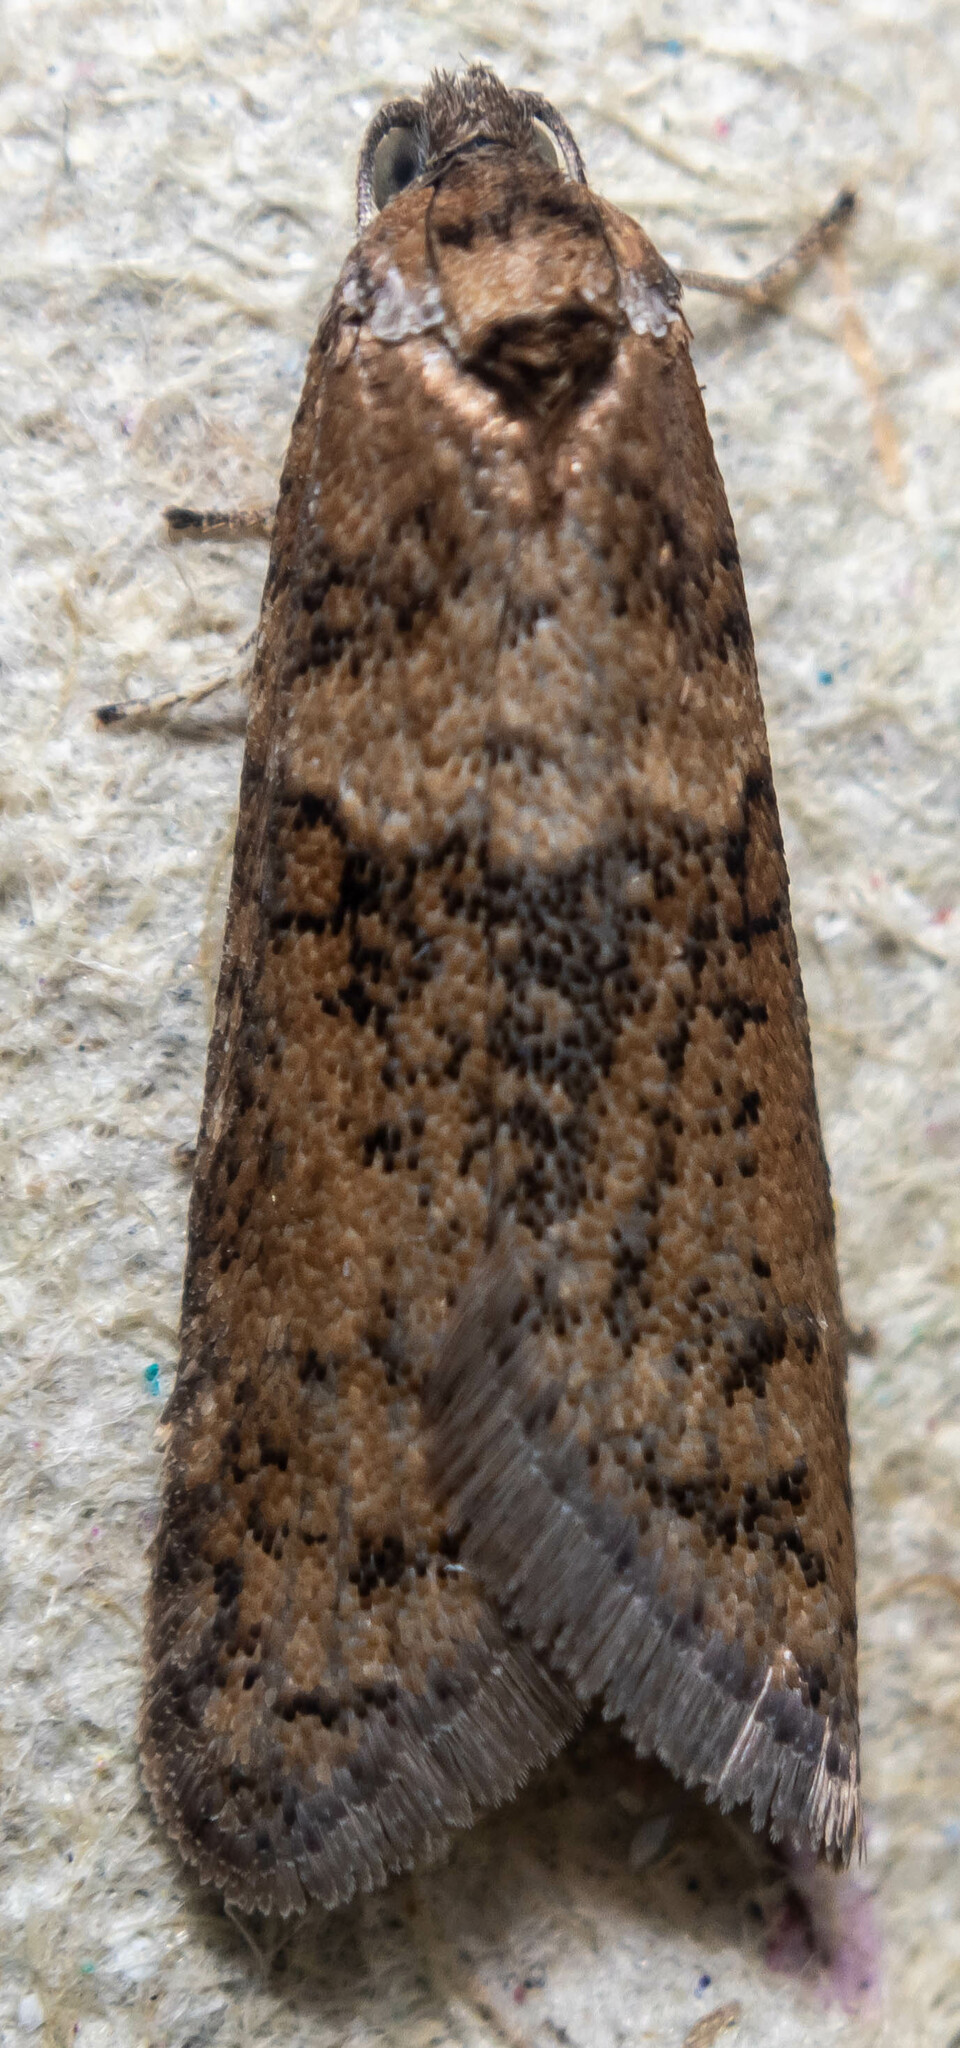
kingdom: Animalia
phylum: Arthropoda
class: Insecta
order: Lepidoptera
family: Tortricidae
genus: Tortricodes
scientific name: Tortricodes alternella
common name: Winter shade
